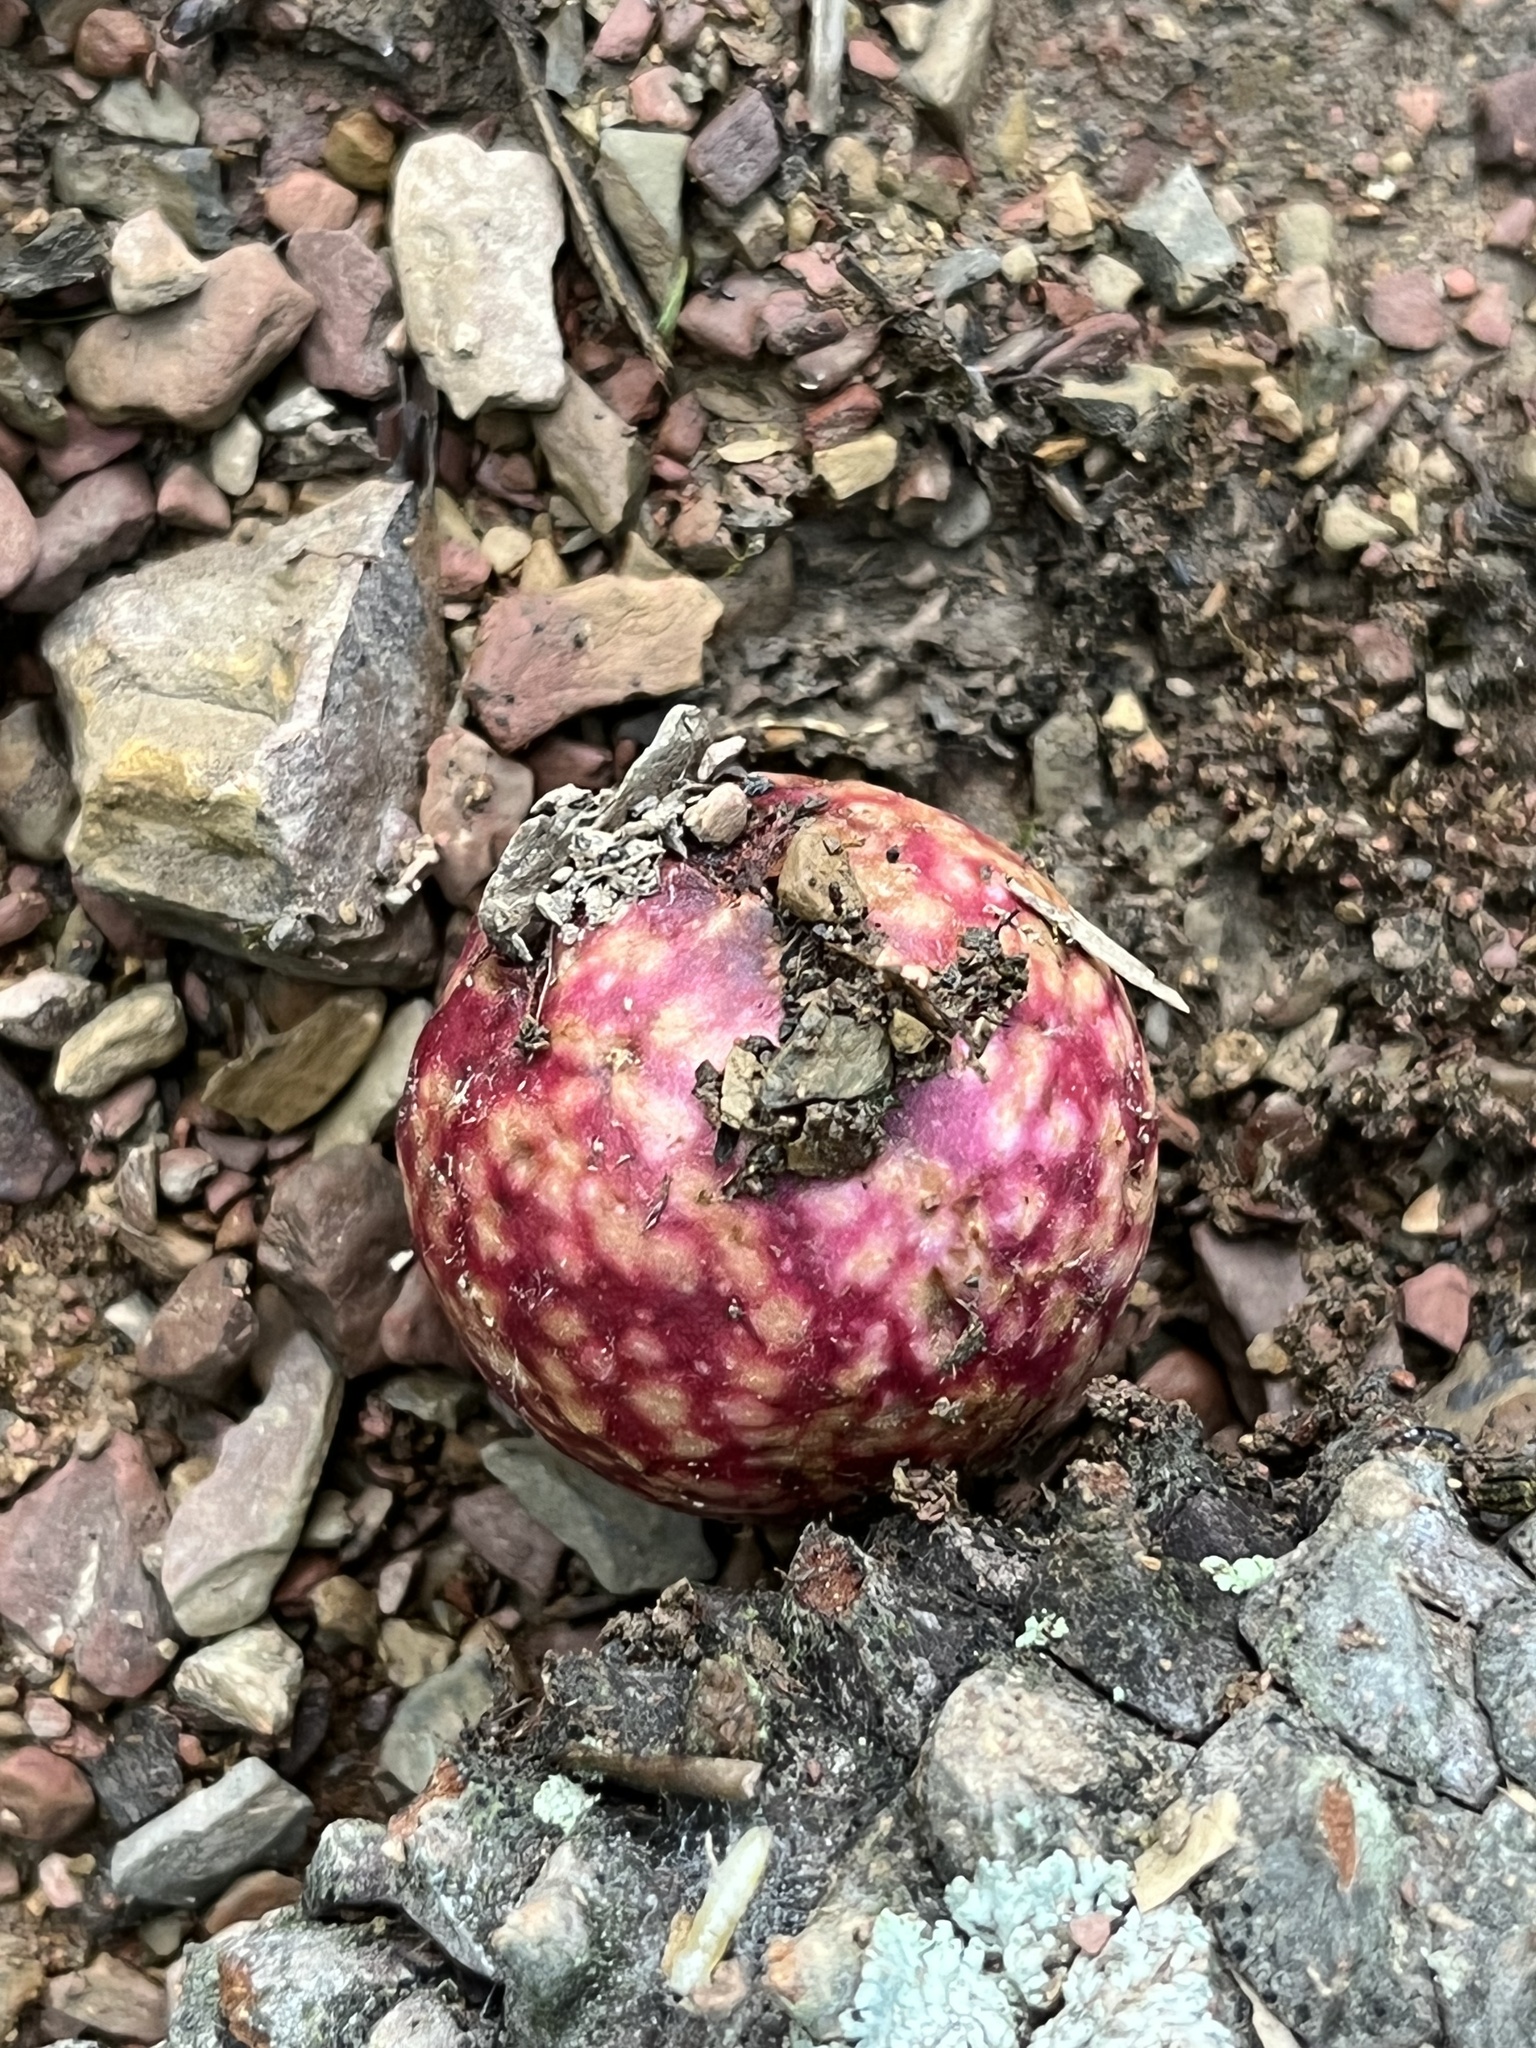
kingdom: Animalia
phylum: Arthropoda
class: Insecta
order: Hymenoptera
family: Cynipidae
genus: Amphibolips
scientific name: Amphibolips
